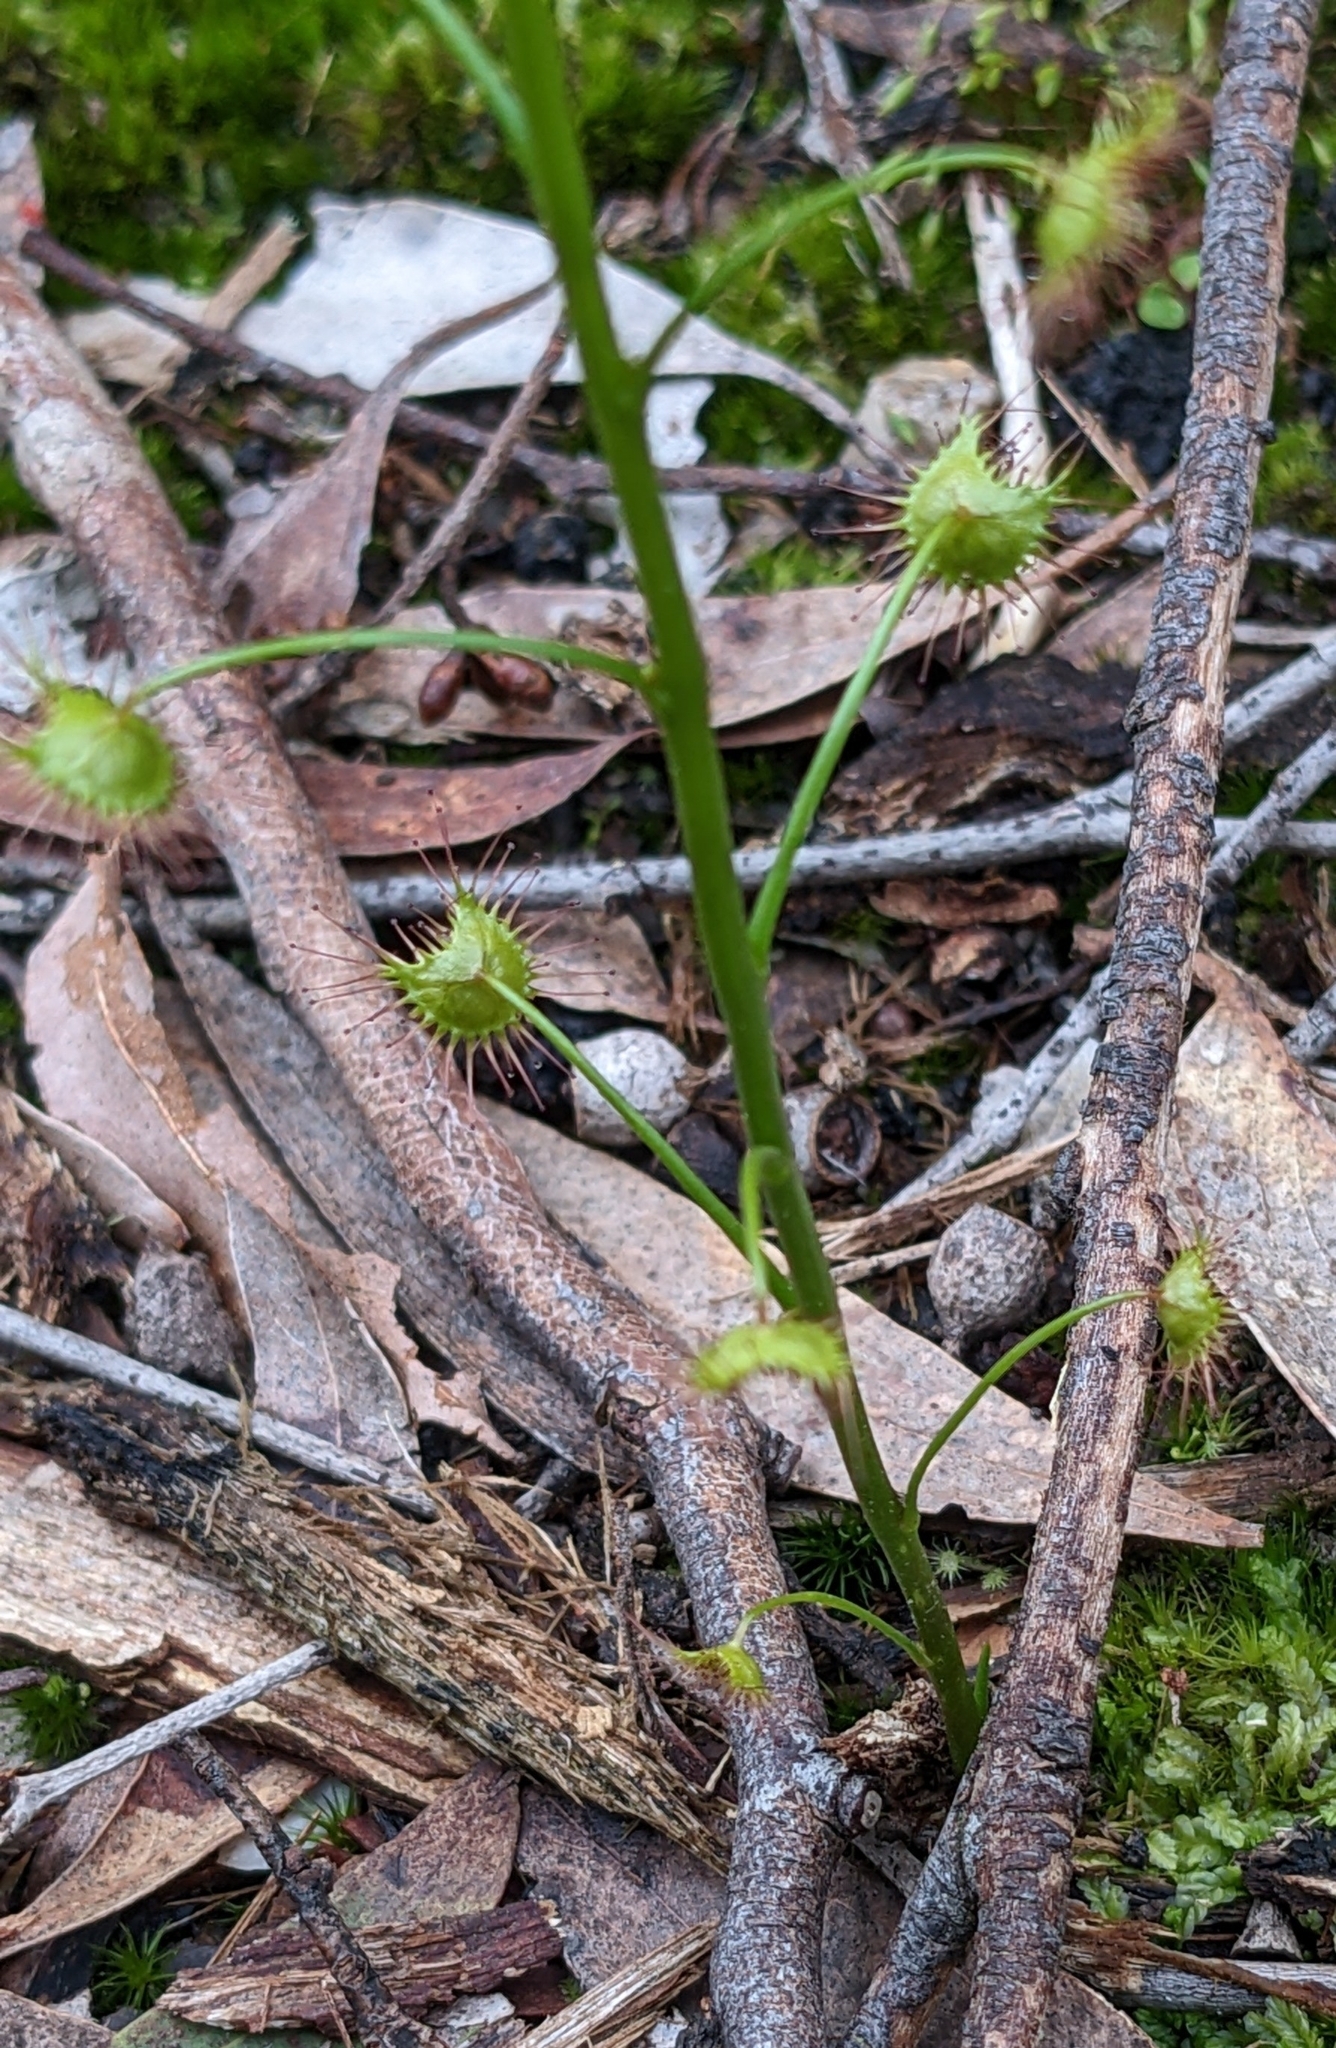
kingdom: Plantae
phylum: Tracheophyta
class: Magnoliopsida
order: Caryophyllales
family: Droseraceae
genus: Drosera
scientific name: Drosera peltata
